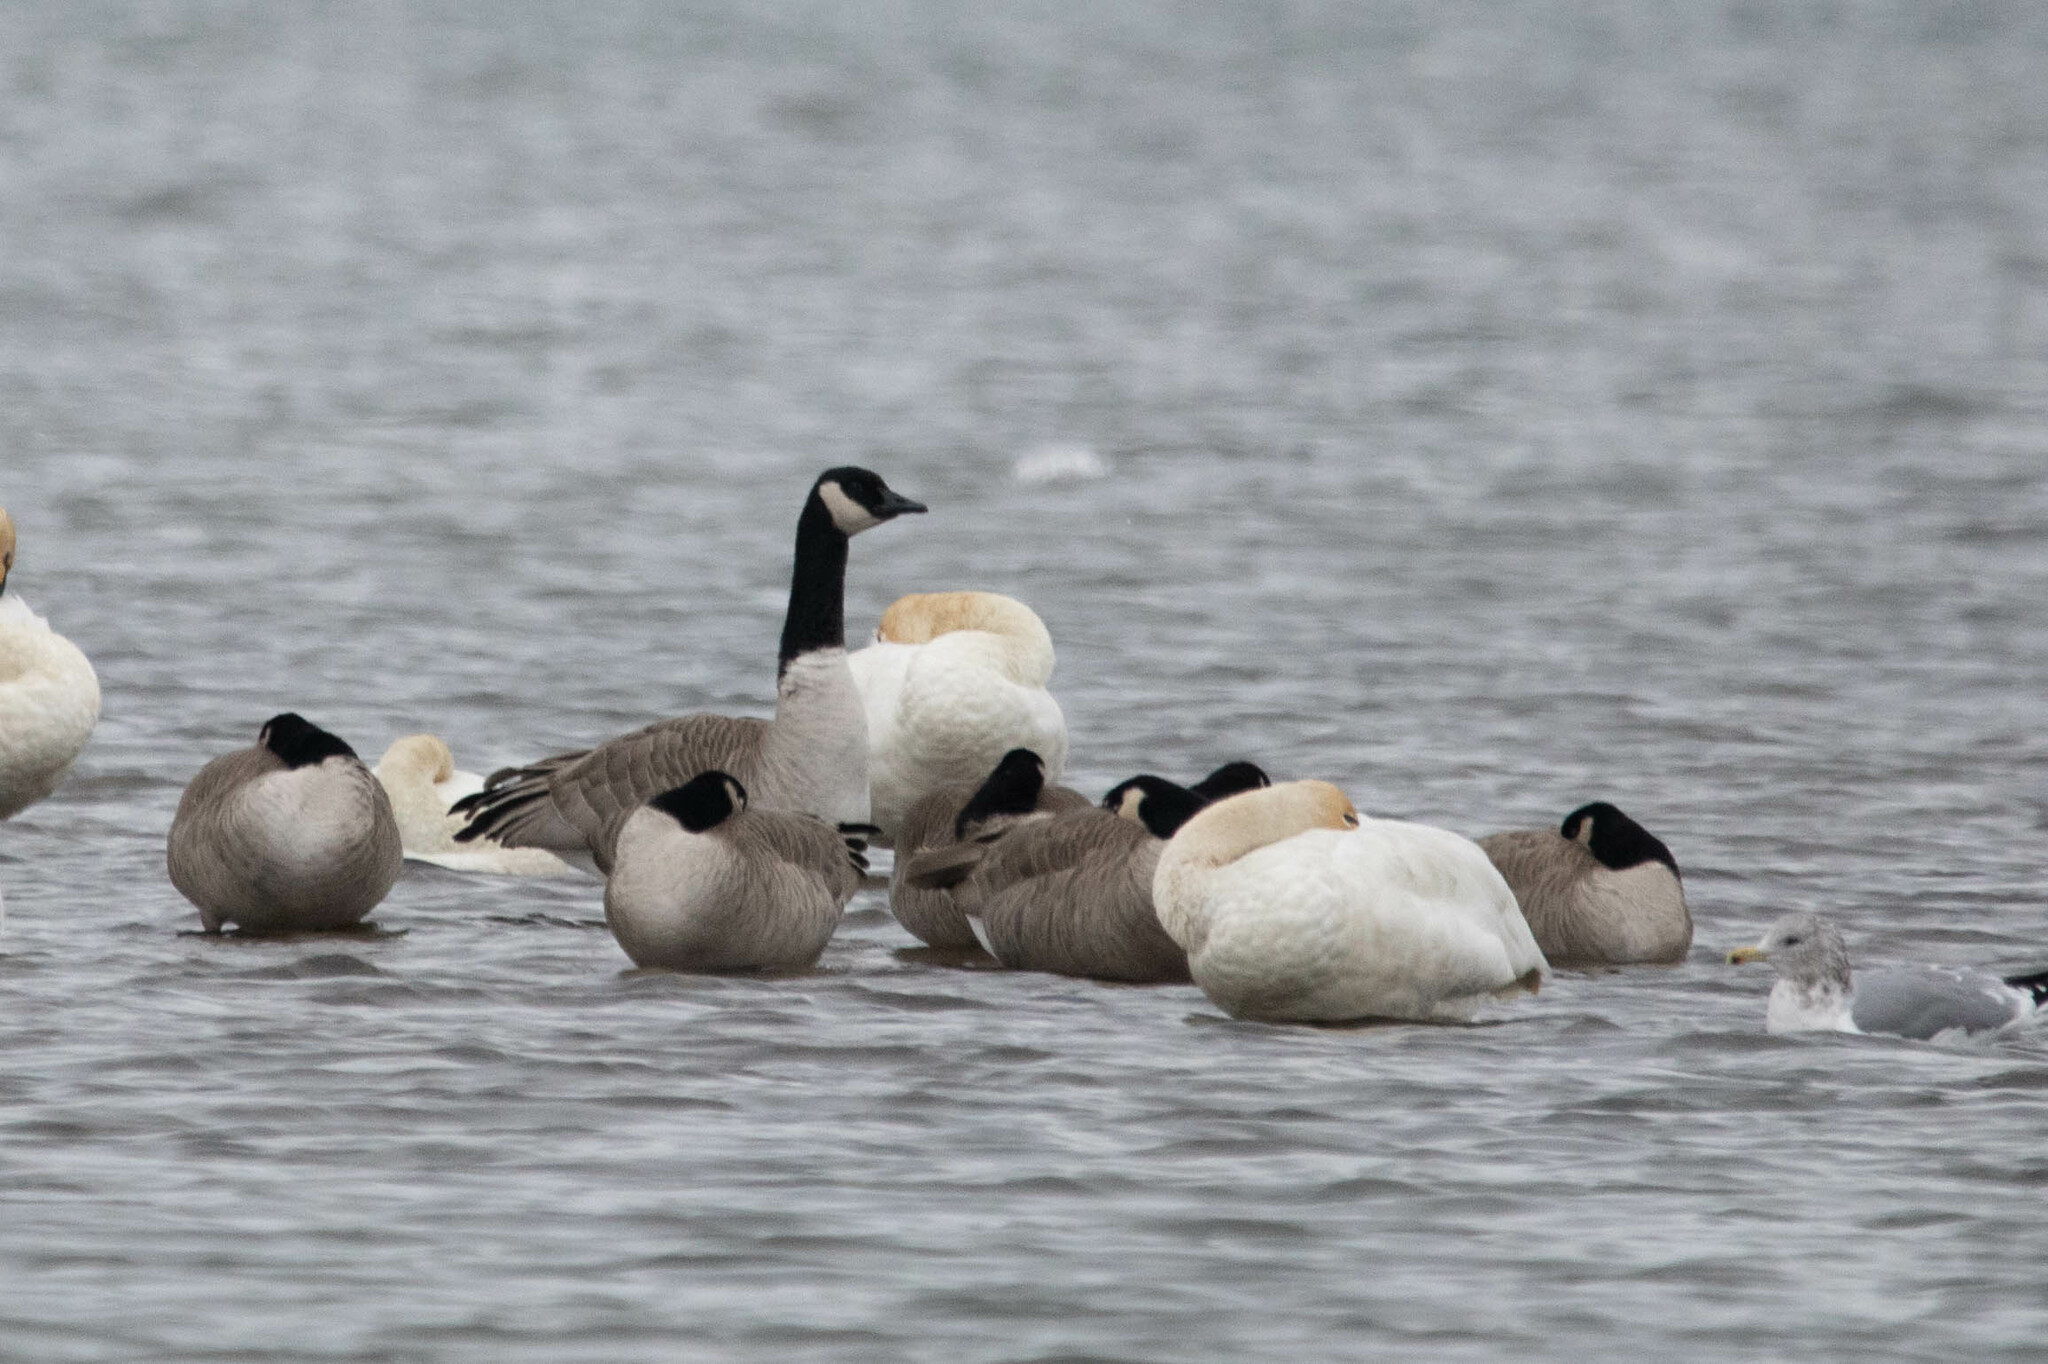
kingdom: Animalia
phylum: Chordata
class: Aves
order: Anseriformes
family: Anatidae
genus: Branta
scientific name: Branta canadensis
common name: Canada goose
